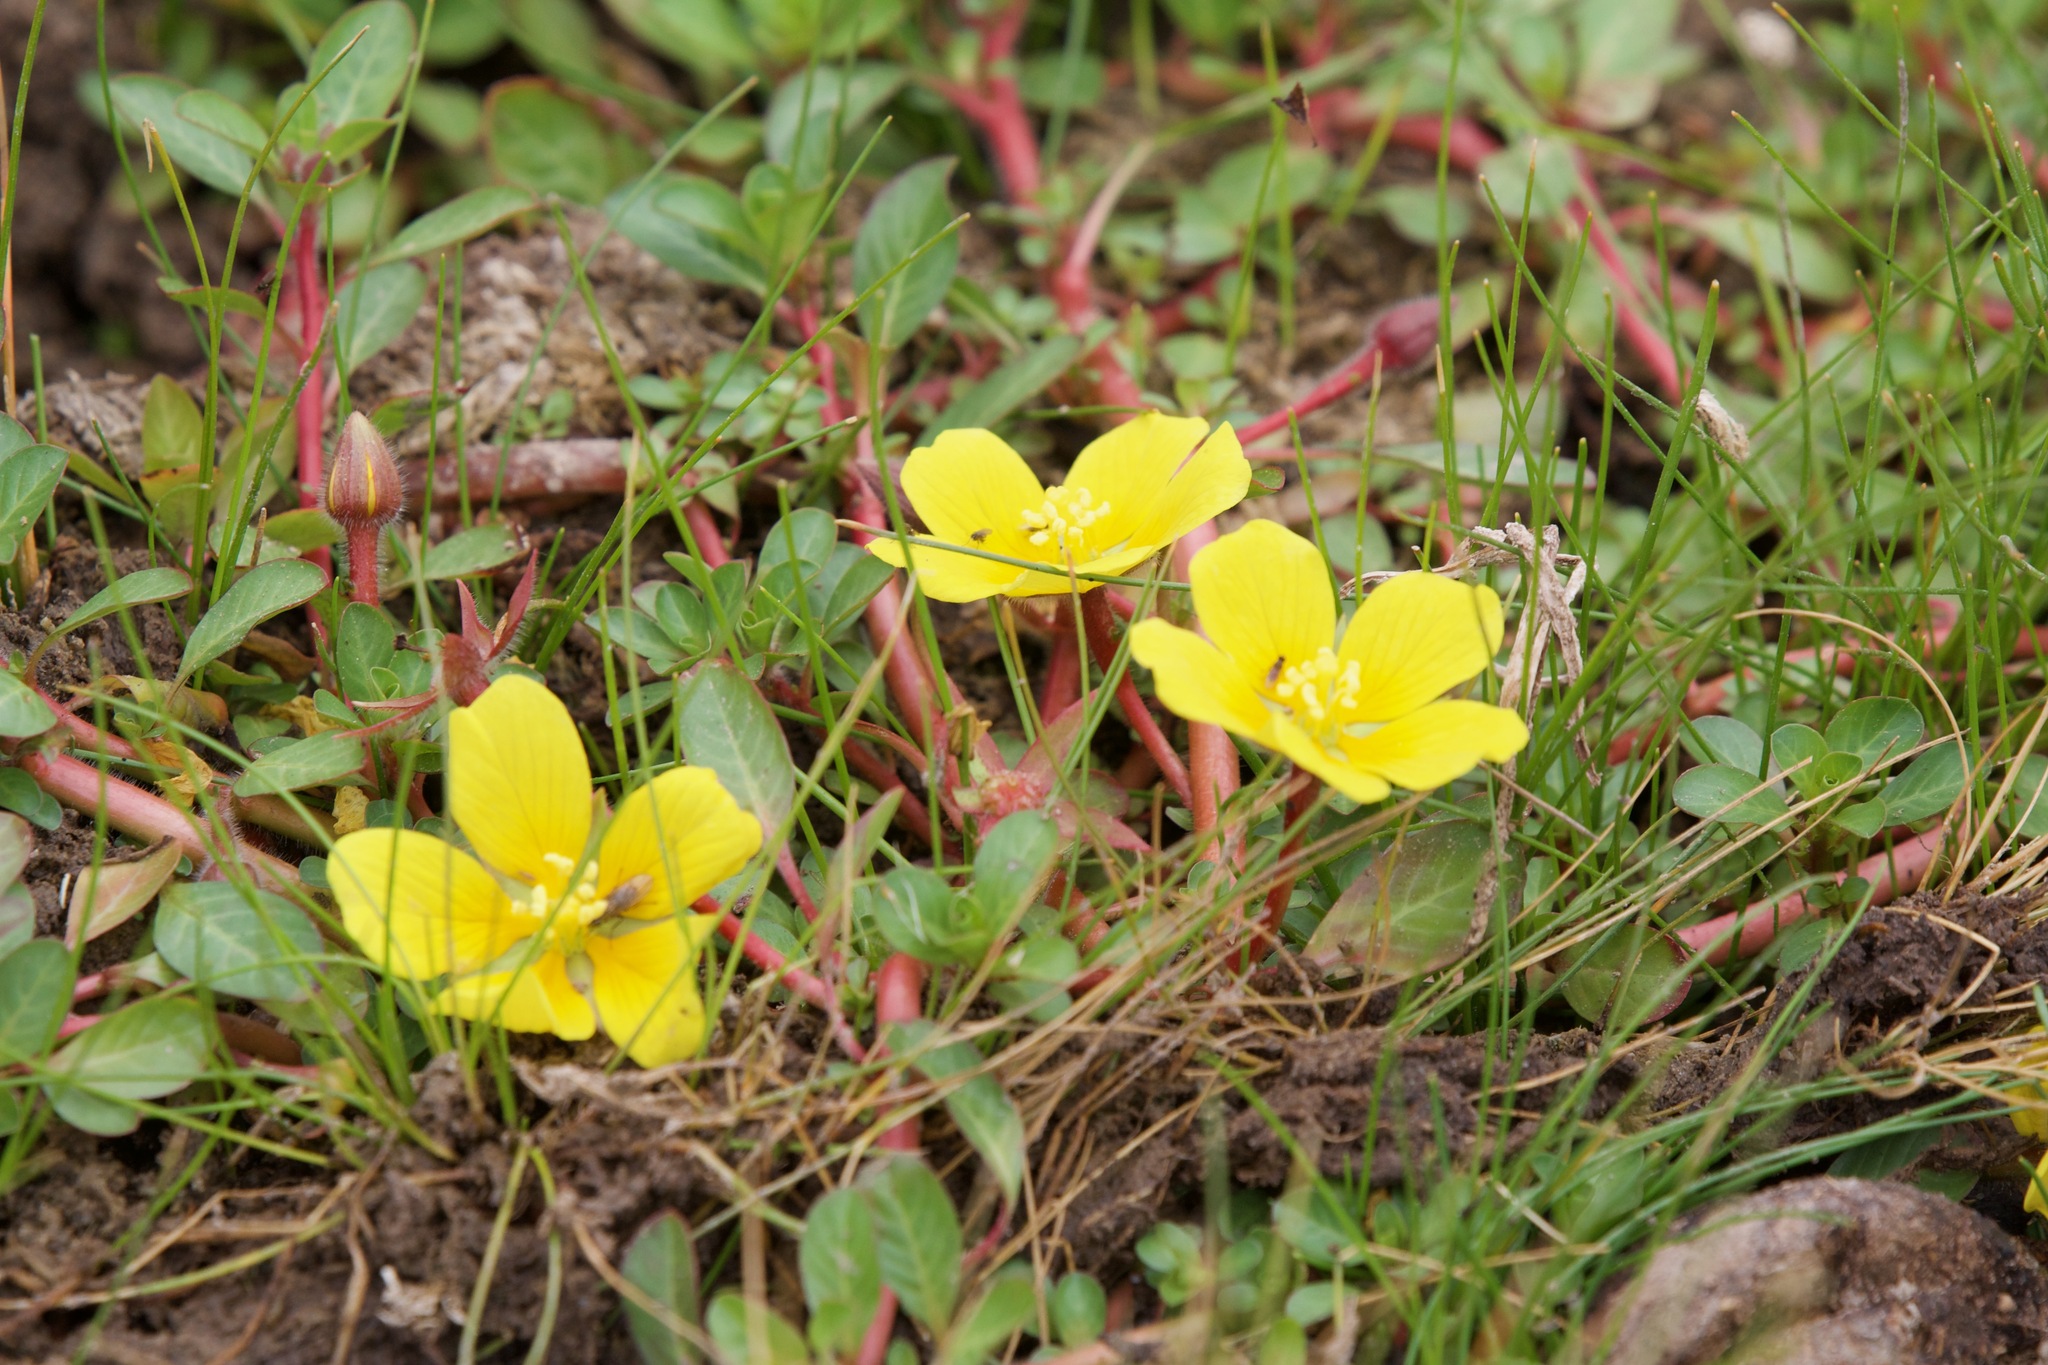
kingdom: Plantae
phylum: Tracheophyta
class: Magnoliopsida
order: Myrtales
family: Onagraceae
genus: Ludwigia
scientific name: Ludwigia peploides
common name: Floating primrose-willow
